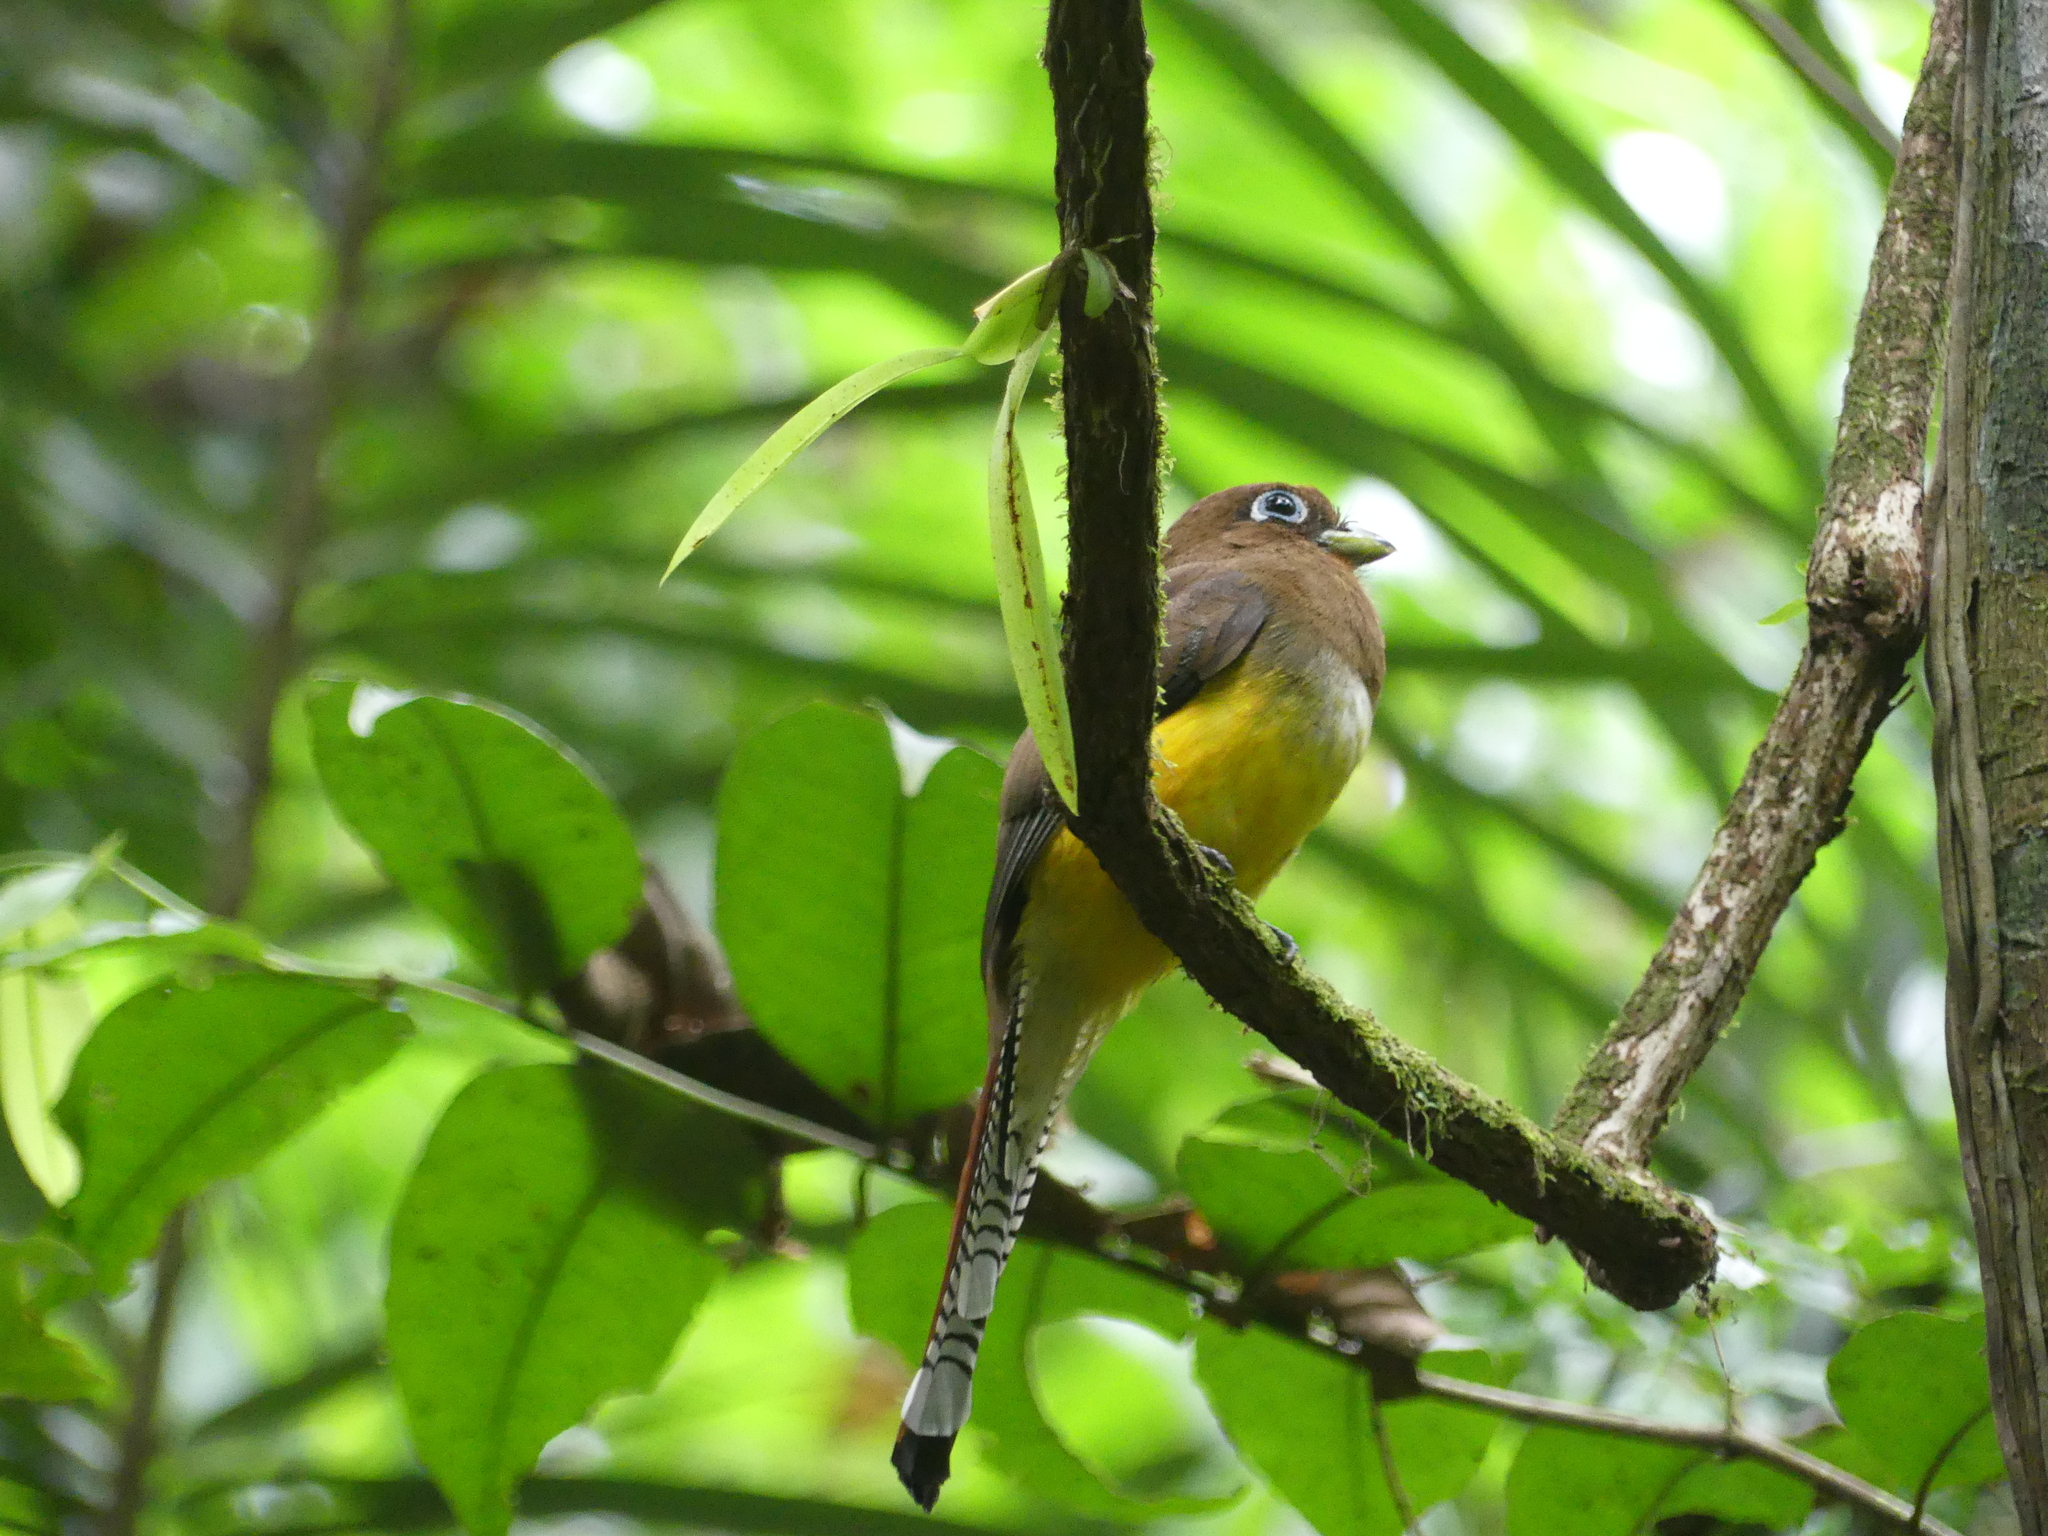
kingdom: Animalia
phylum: Chordata
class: Aves
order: Trogoniformes
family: Trogonidae
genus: Trogon
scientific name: Trogon rufus
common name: Black-throated trogon
